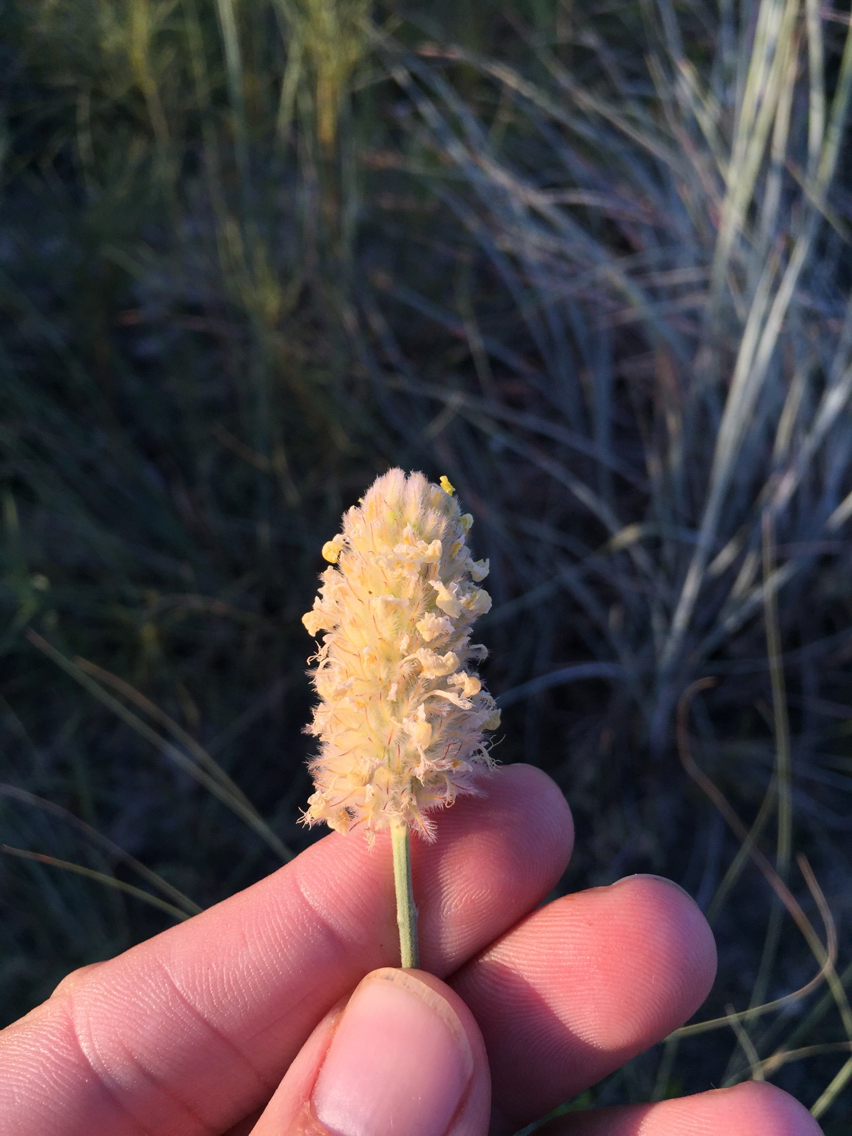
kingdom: Plantae
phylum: Tracheophyta
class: Magnoliopsida
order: Fabales
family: Fabaceae
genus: Dalea
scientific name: Dalea aurea
